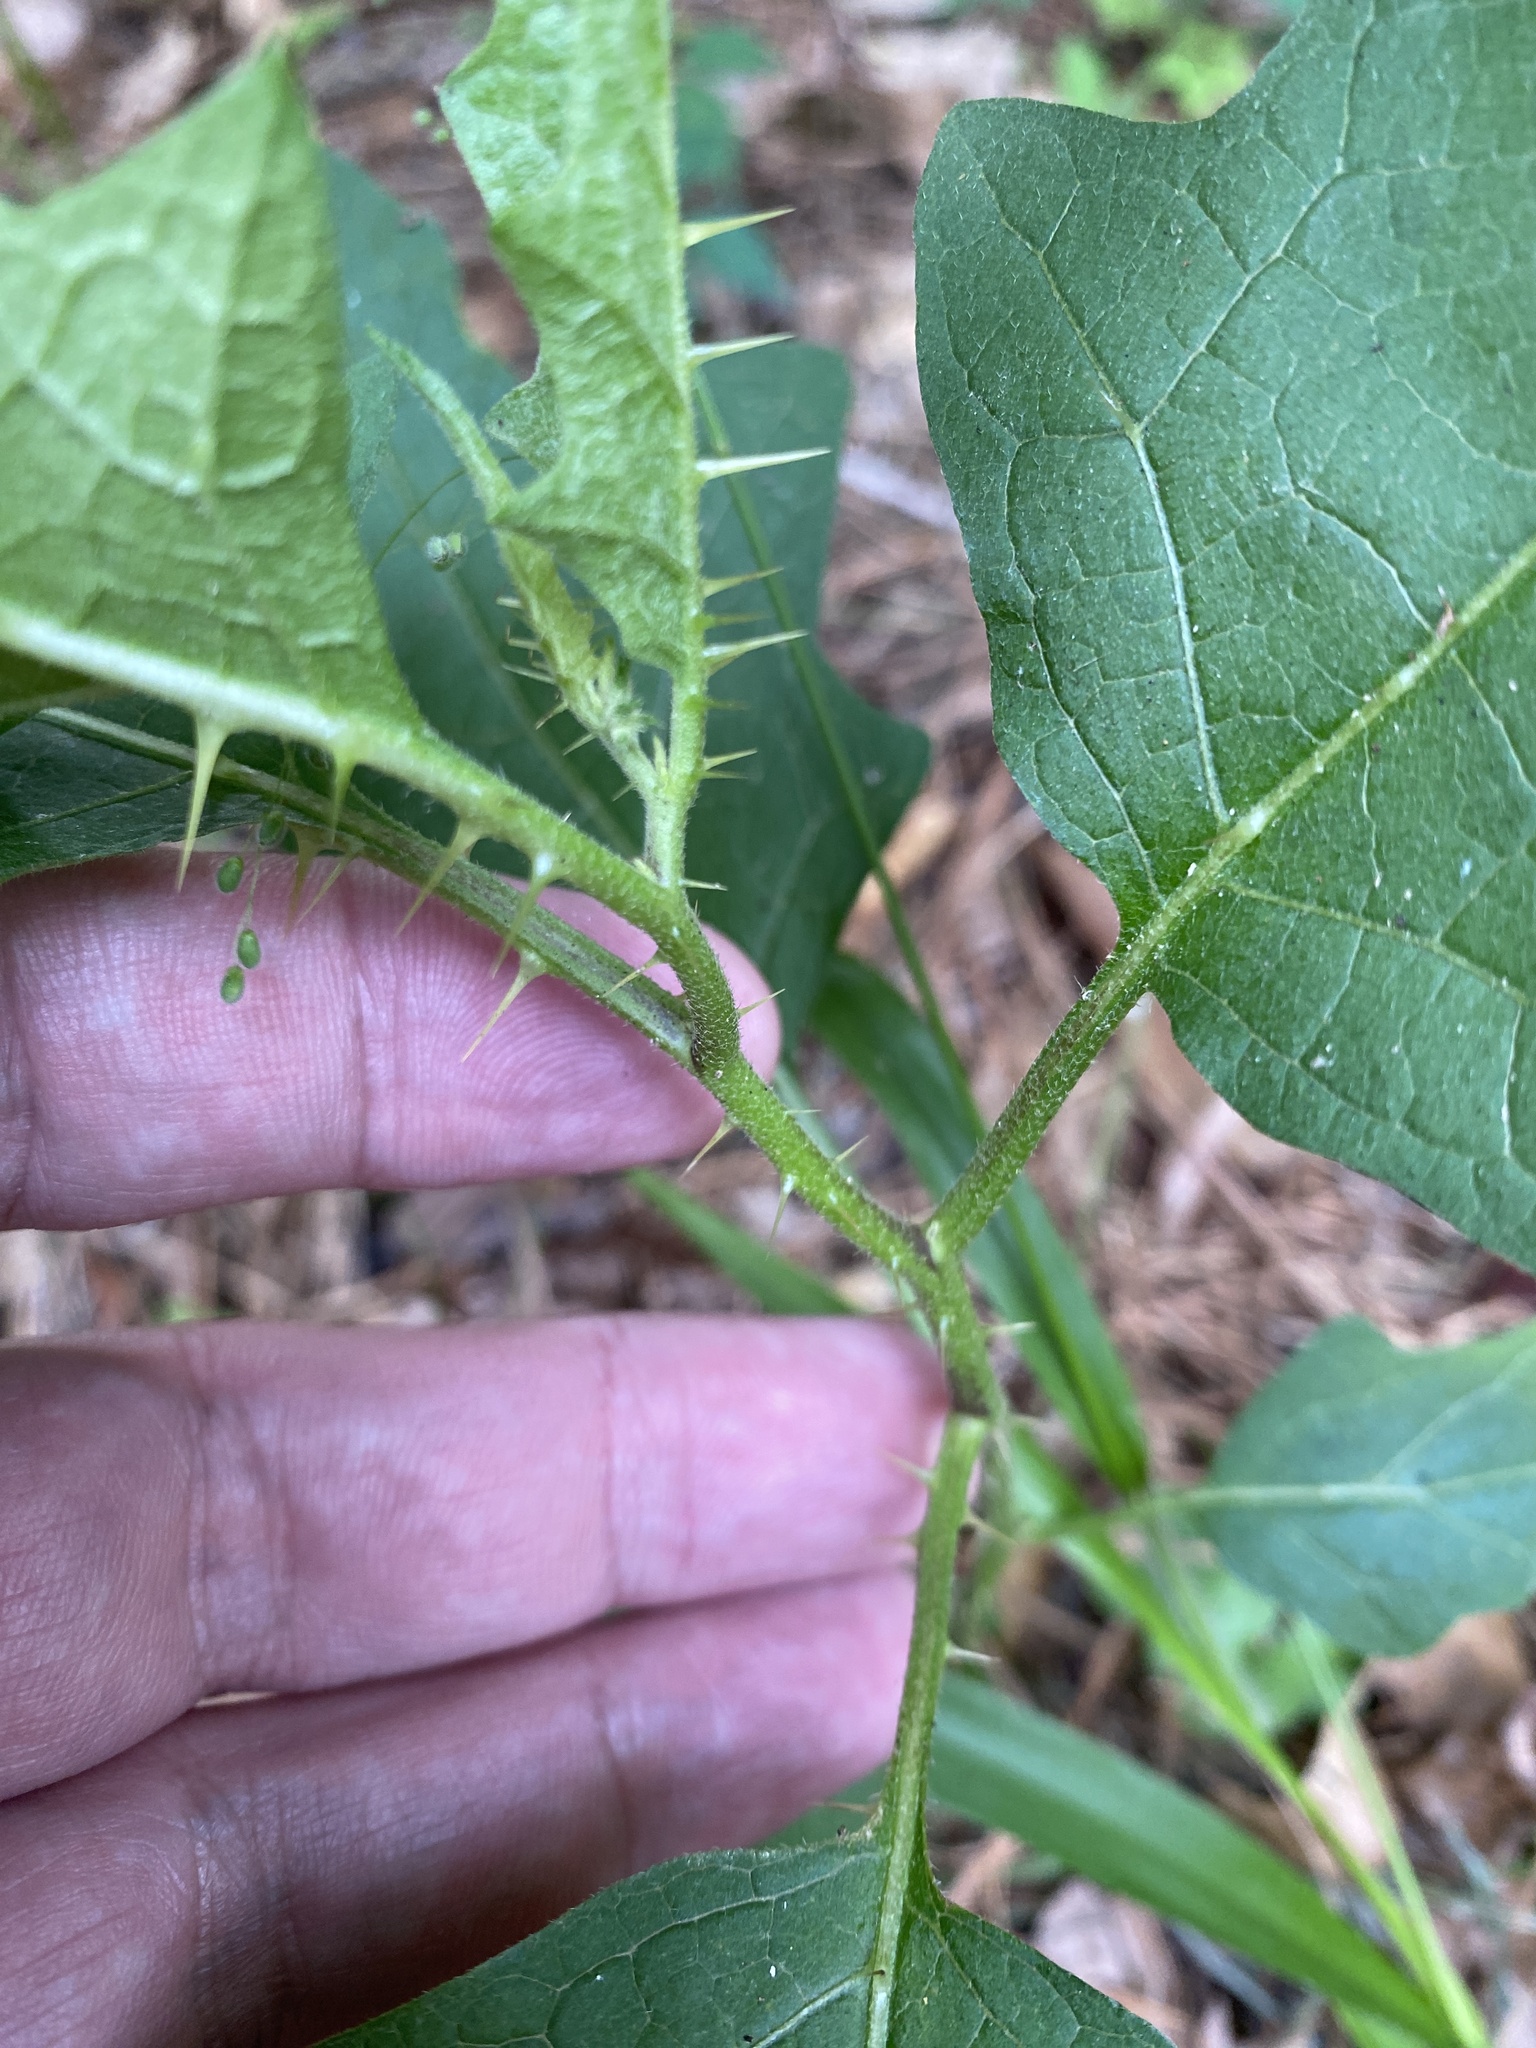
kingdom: Plantae
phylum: Tracheophyta
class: Magnoliopsida
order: Solanales
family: Solanaceae
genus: Solanum
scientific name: Solanum carolinense
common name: Horse-nettle
